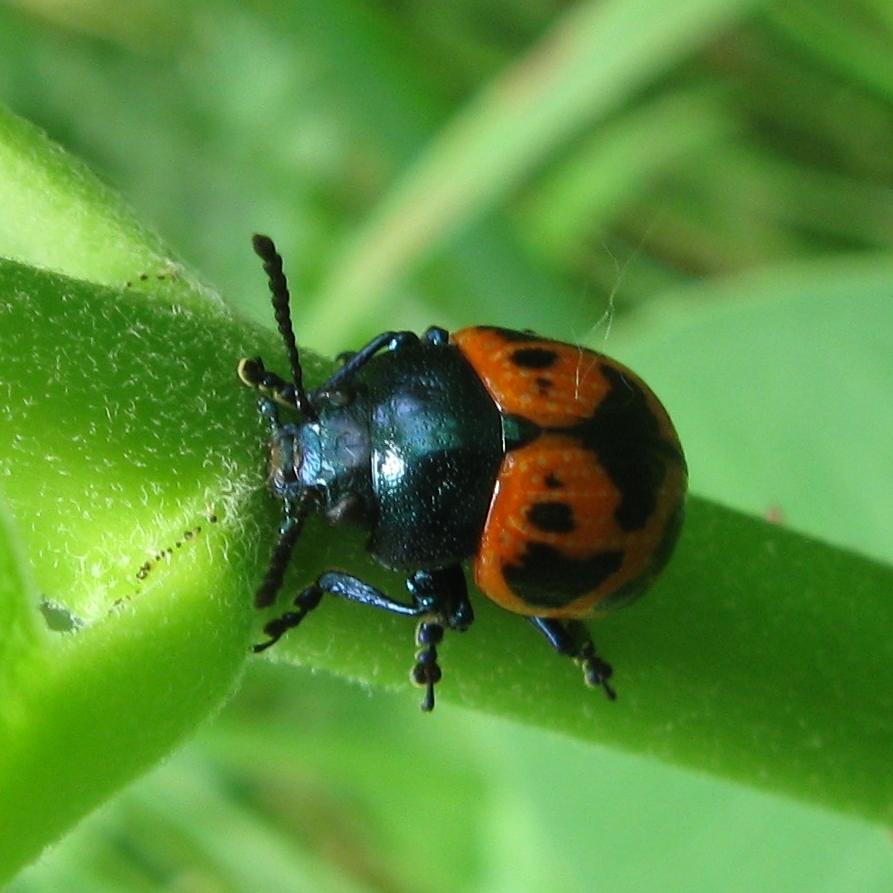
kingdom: Animalia
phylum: Arthropoda
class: Insecta
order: Coleoptera
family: Chrysomelidae
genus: Labidomera
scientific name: Labidomera clivicollis
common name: Swamp milkweed leaf beetle
